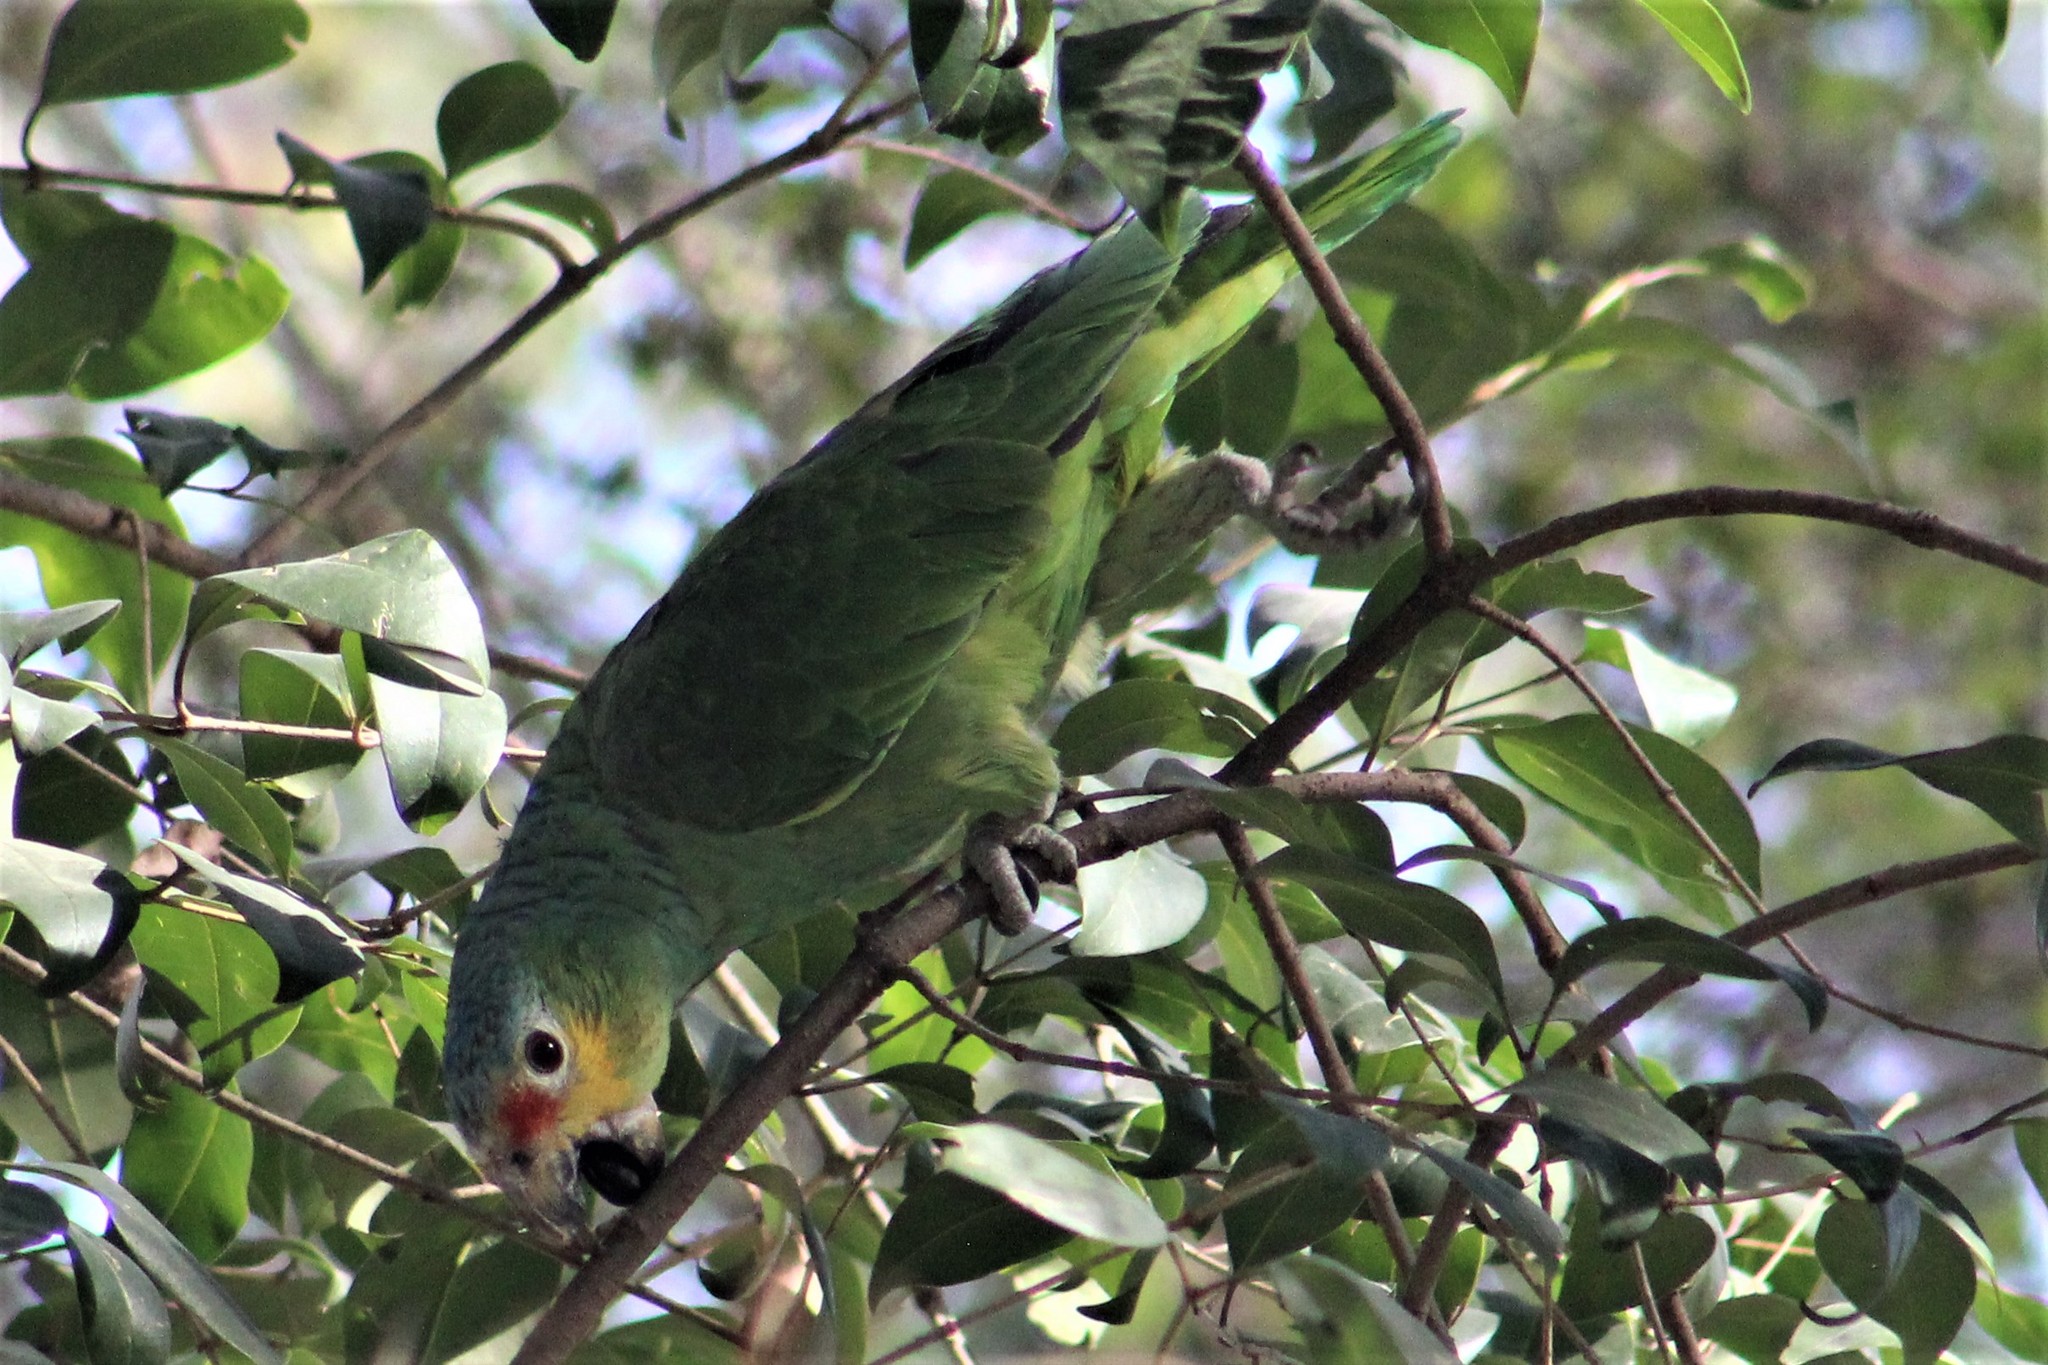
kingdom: Animalia
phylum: Chordata
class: Aves
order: Psittaciformes
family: Psittacidae
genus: Amazona
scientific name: Amazona autumnalis
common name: Red-lored amazon
